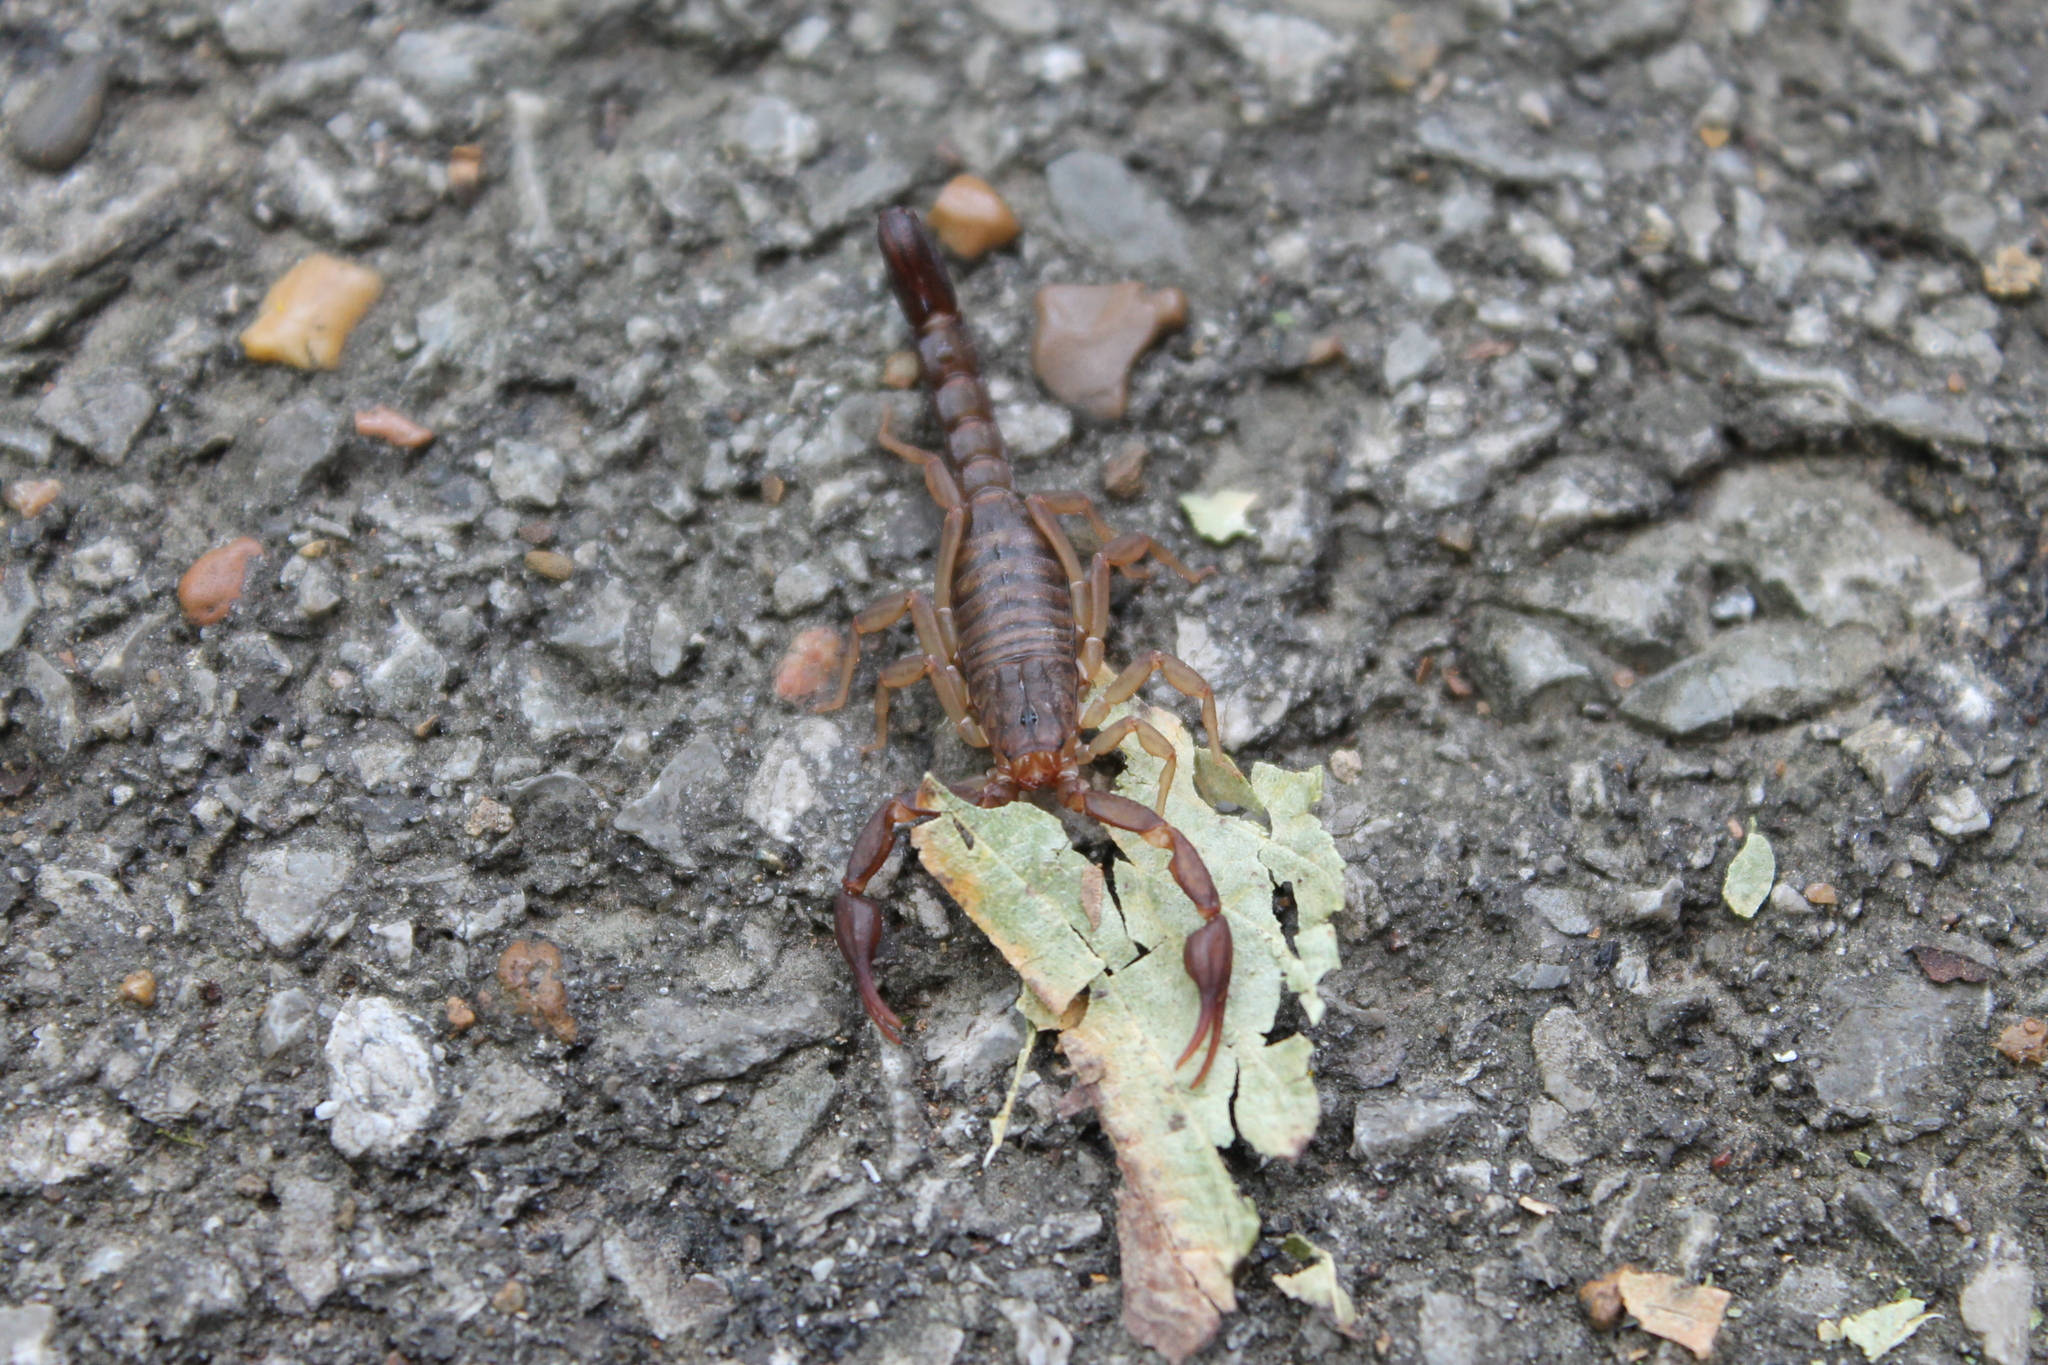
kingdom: Animalia
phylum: Arthropoda
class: Arachnida
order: Scorpiones
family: Vaejovidae
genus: Vaejovis
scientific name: Vaejovis carolinianus
